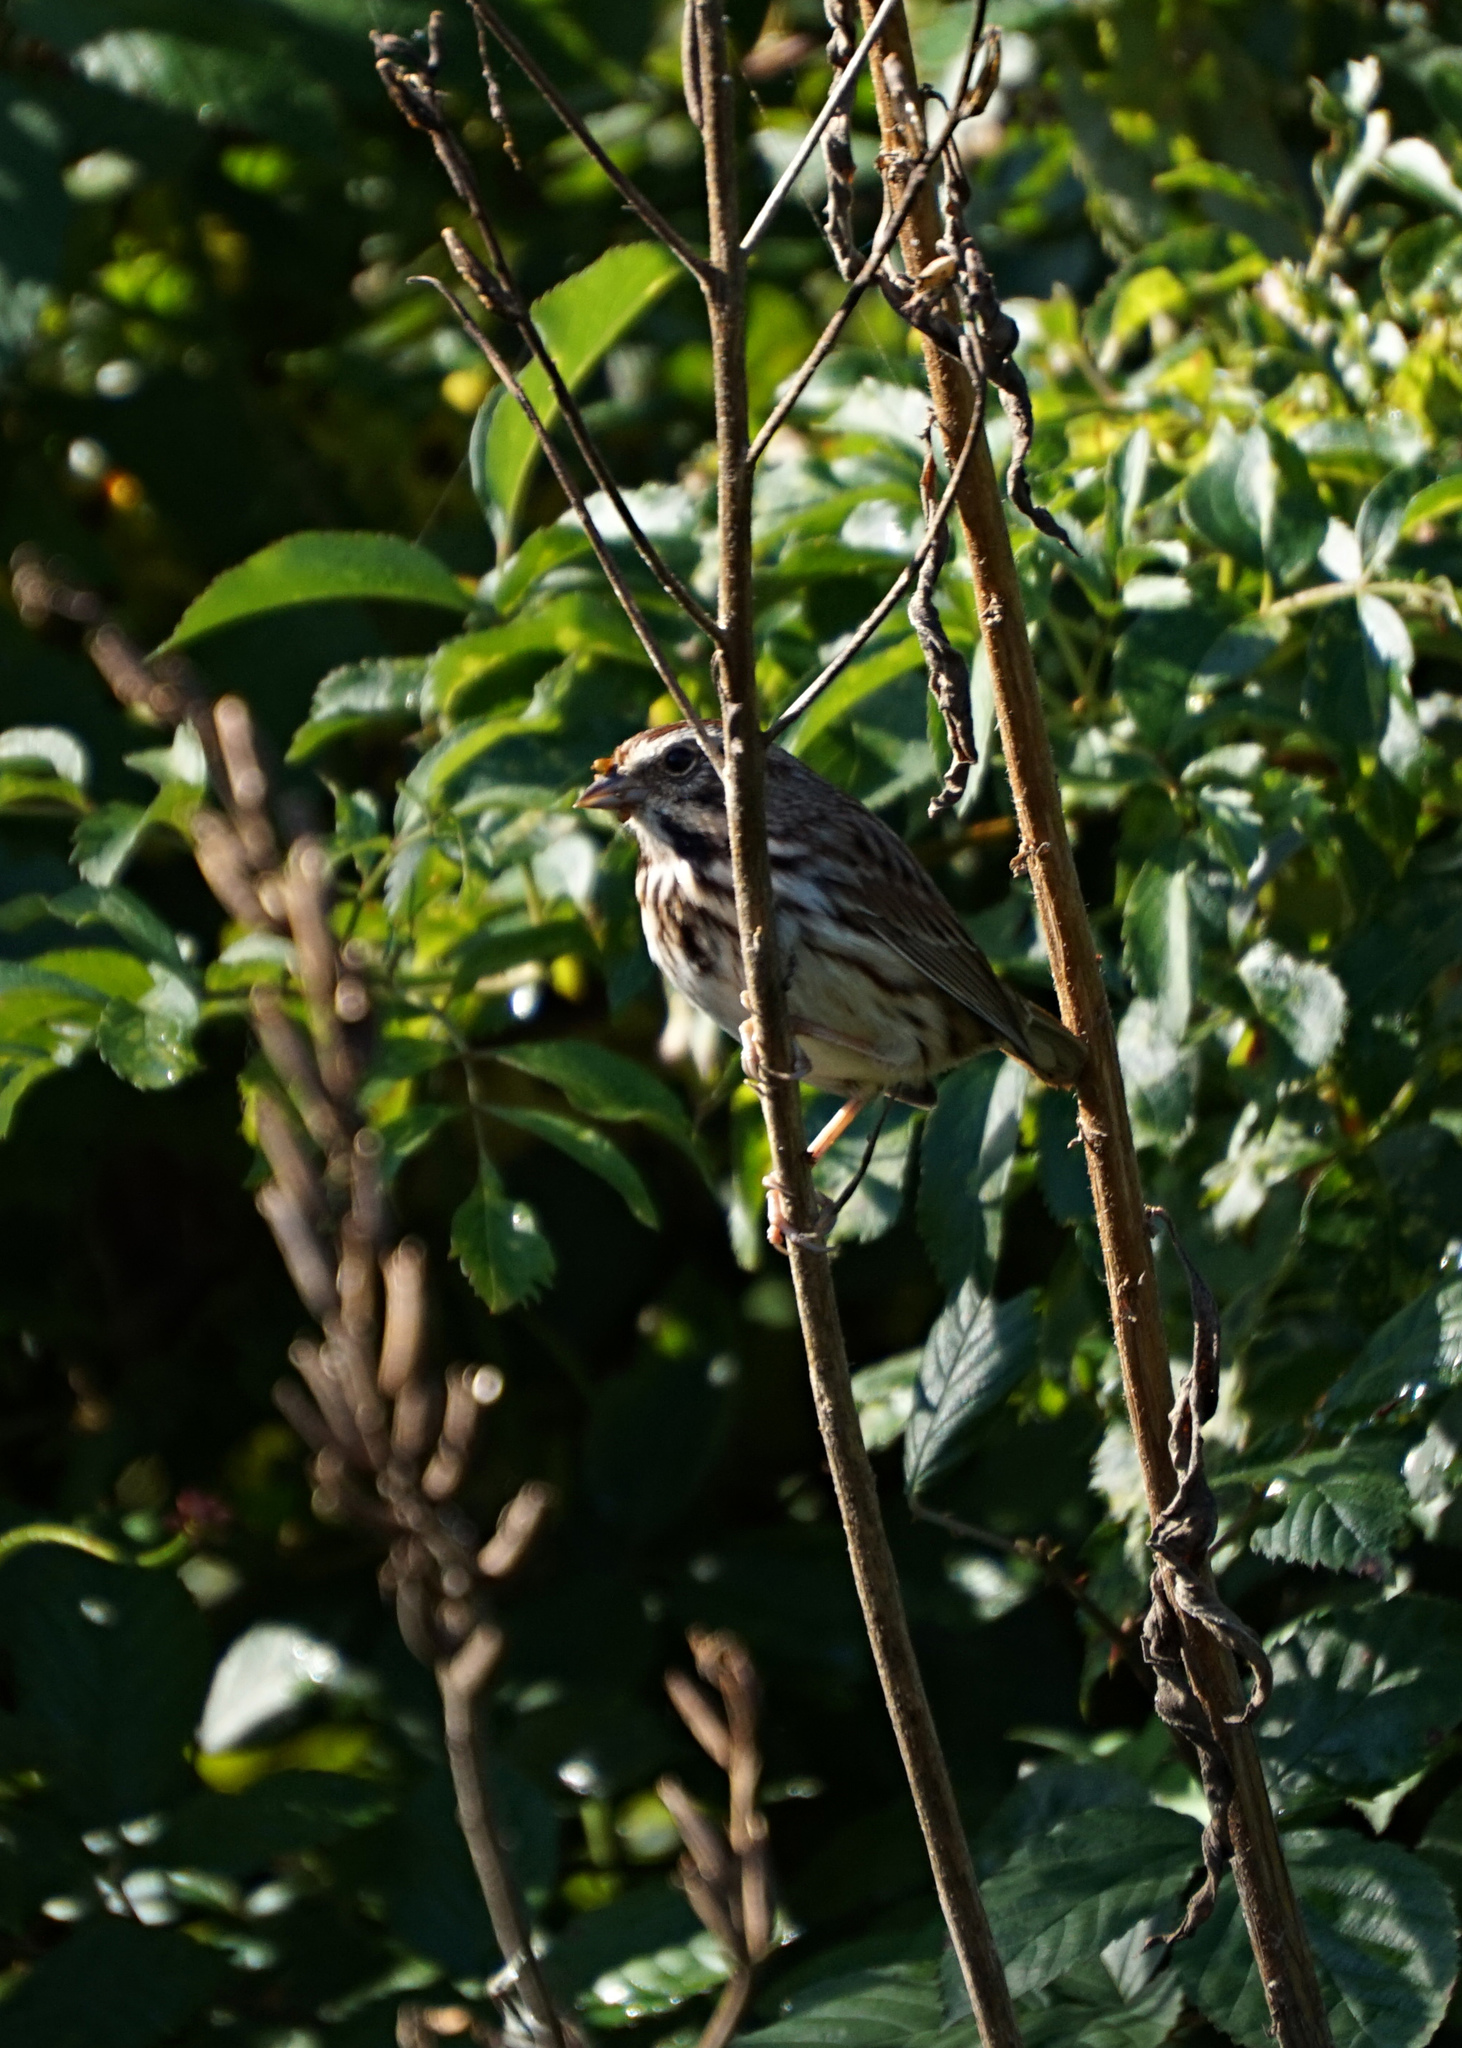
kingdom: Animalia
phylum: Chordata
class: Aves
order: Passeriformes
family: Passerellidae
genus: Melospiza
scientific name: Melospiza melodia
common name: Song sparrow
